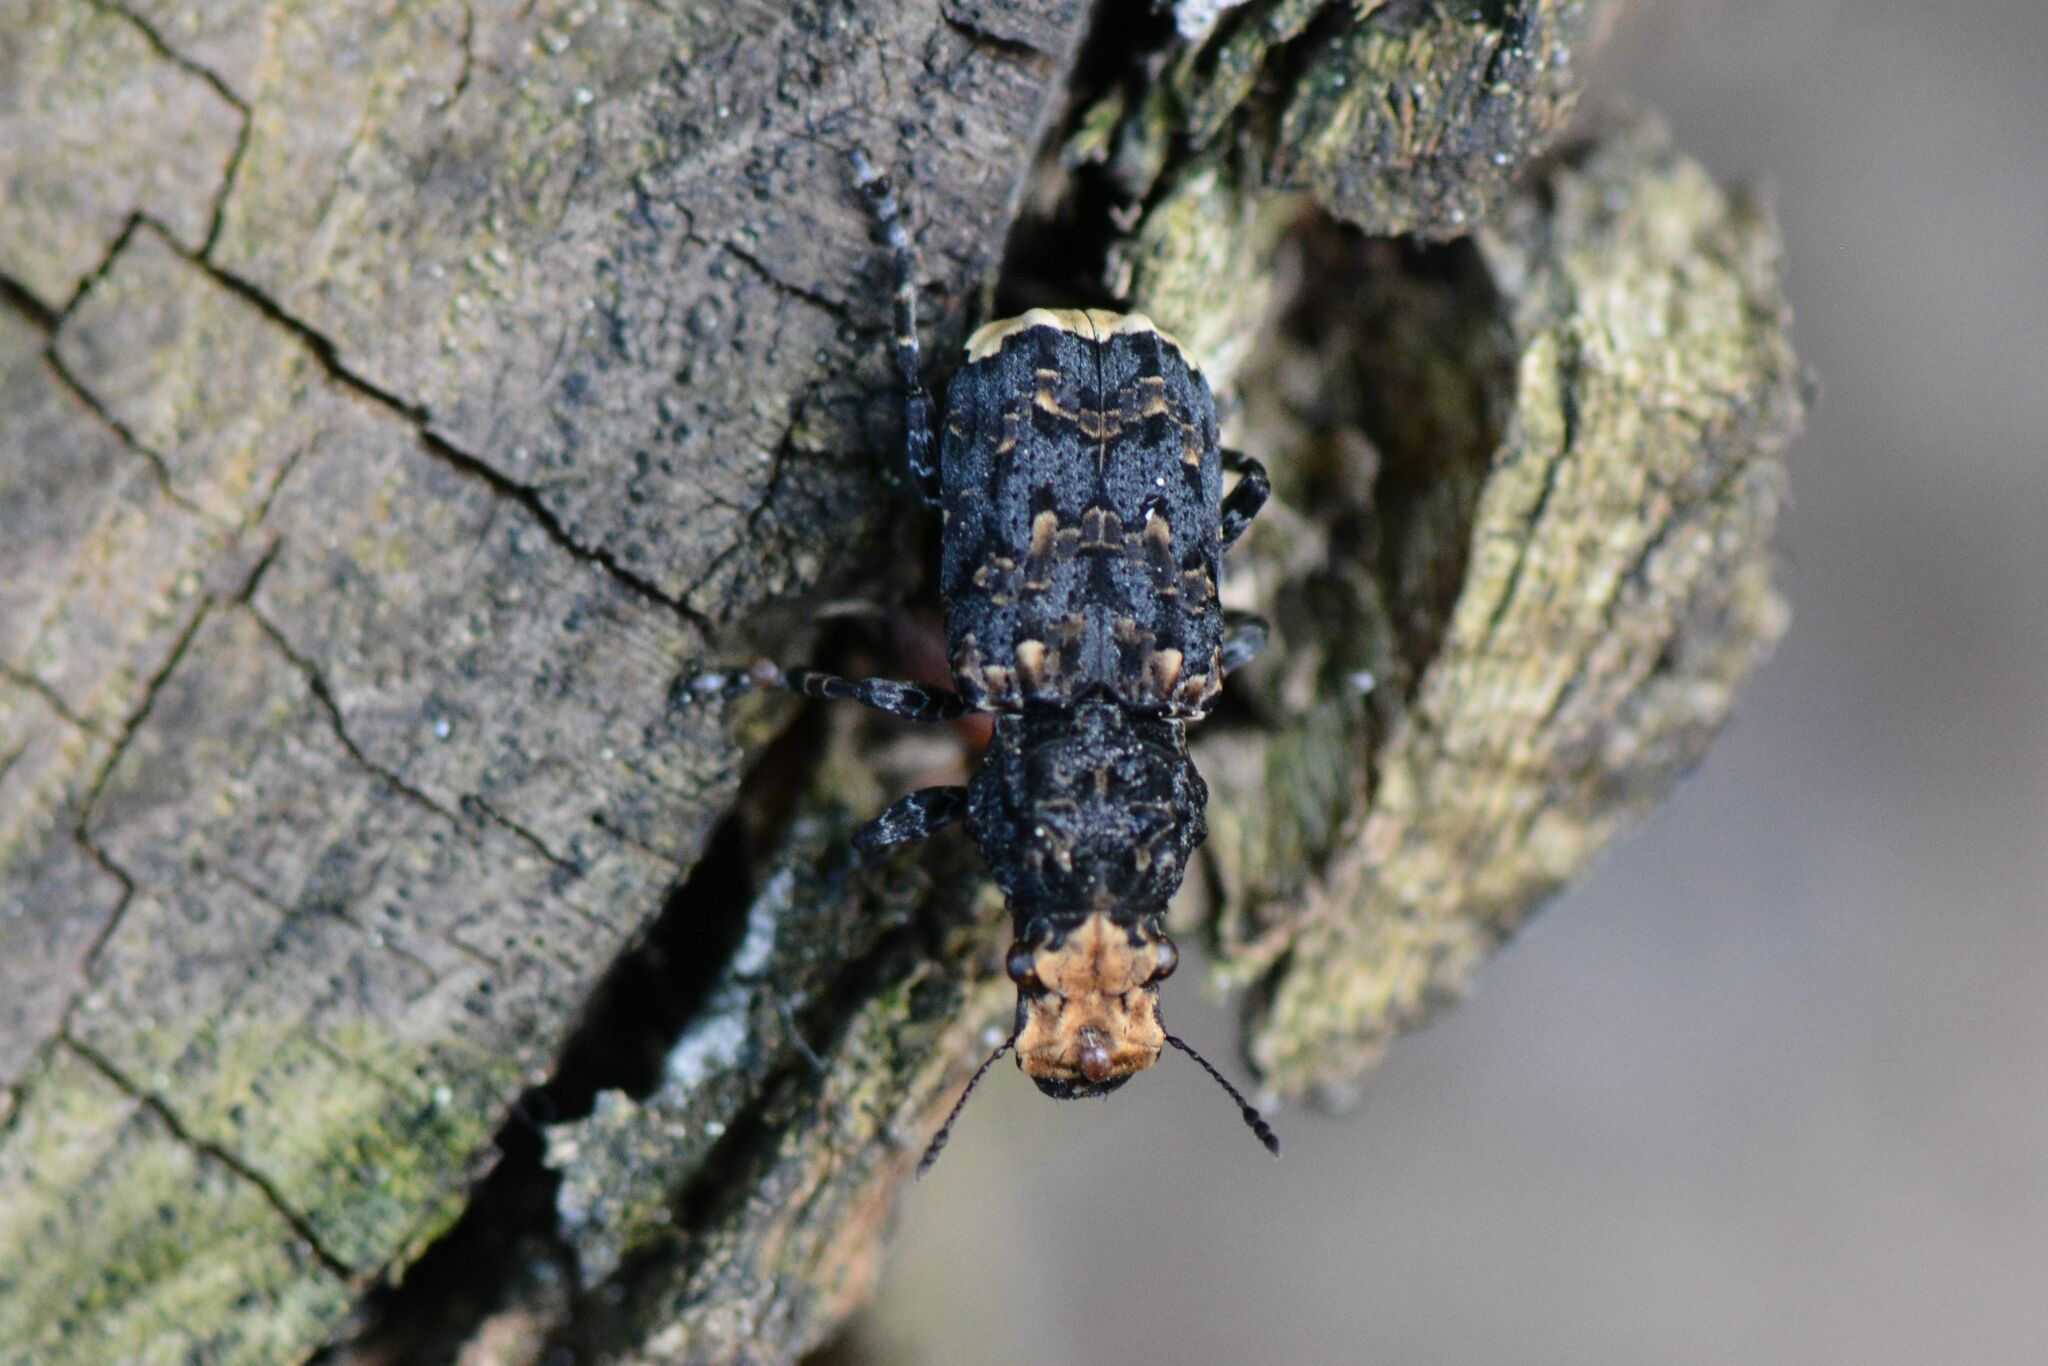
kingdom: Animalia
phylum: Arthropoda
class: Insecta
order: Coleoptera
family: Anthribidae
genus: Platyrhinus
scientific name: Platyrhinus resinosus
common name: Cramp-ball fungus weevil
